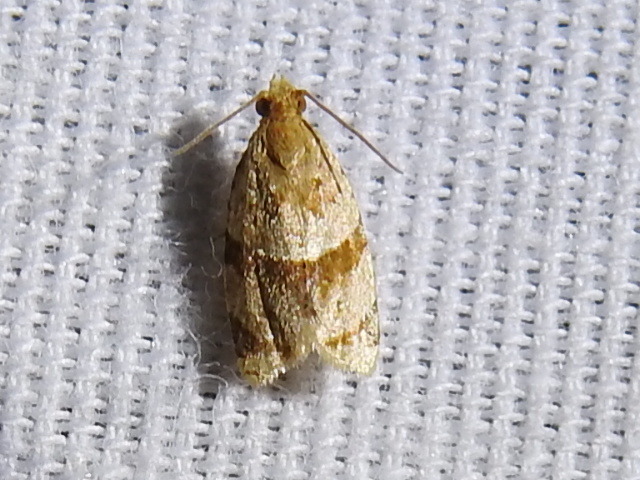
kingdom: Animalia
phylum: Arthropoda
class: Insecta
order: Lepidoptera
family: Tortricidae
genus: Clepsis
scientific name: Clepsis peritana
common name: Garden tortrix
